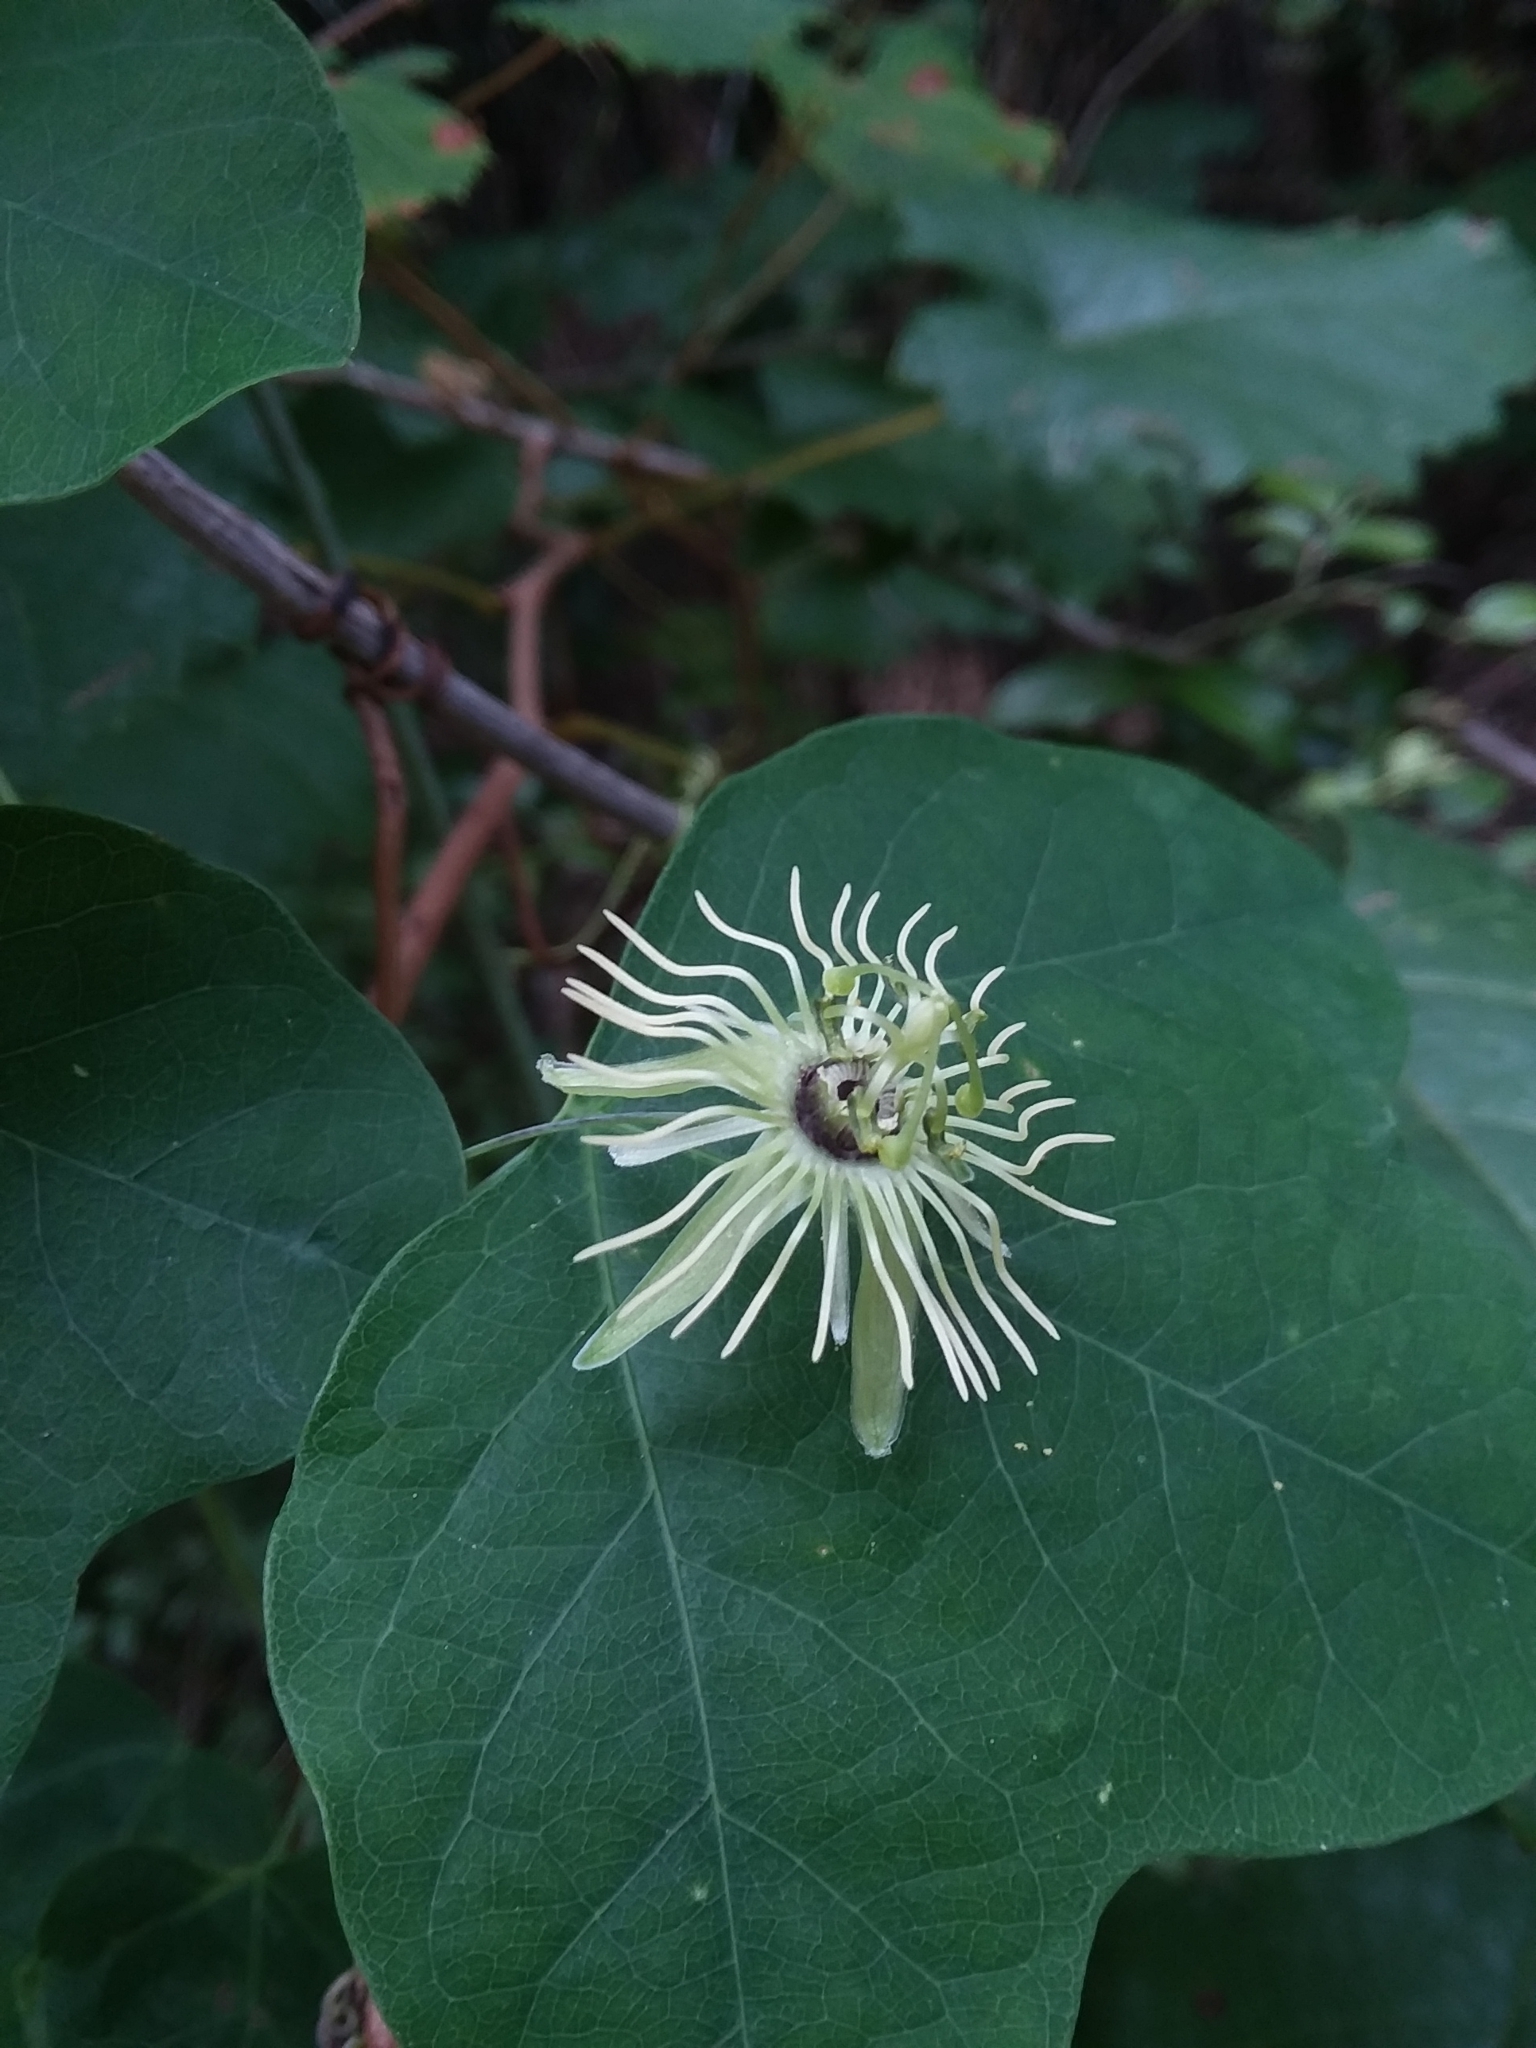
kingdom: Plantae
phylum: Tracheophyta
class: Magnoliopsida
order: Malpighiales
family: Passifloraceae
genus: Passiflora
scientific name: Passiflora lutea
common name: Yellow passionflower
